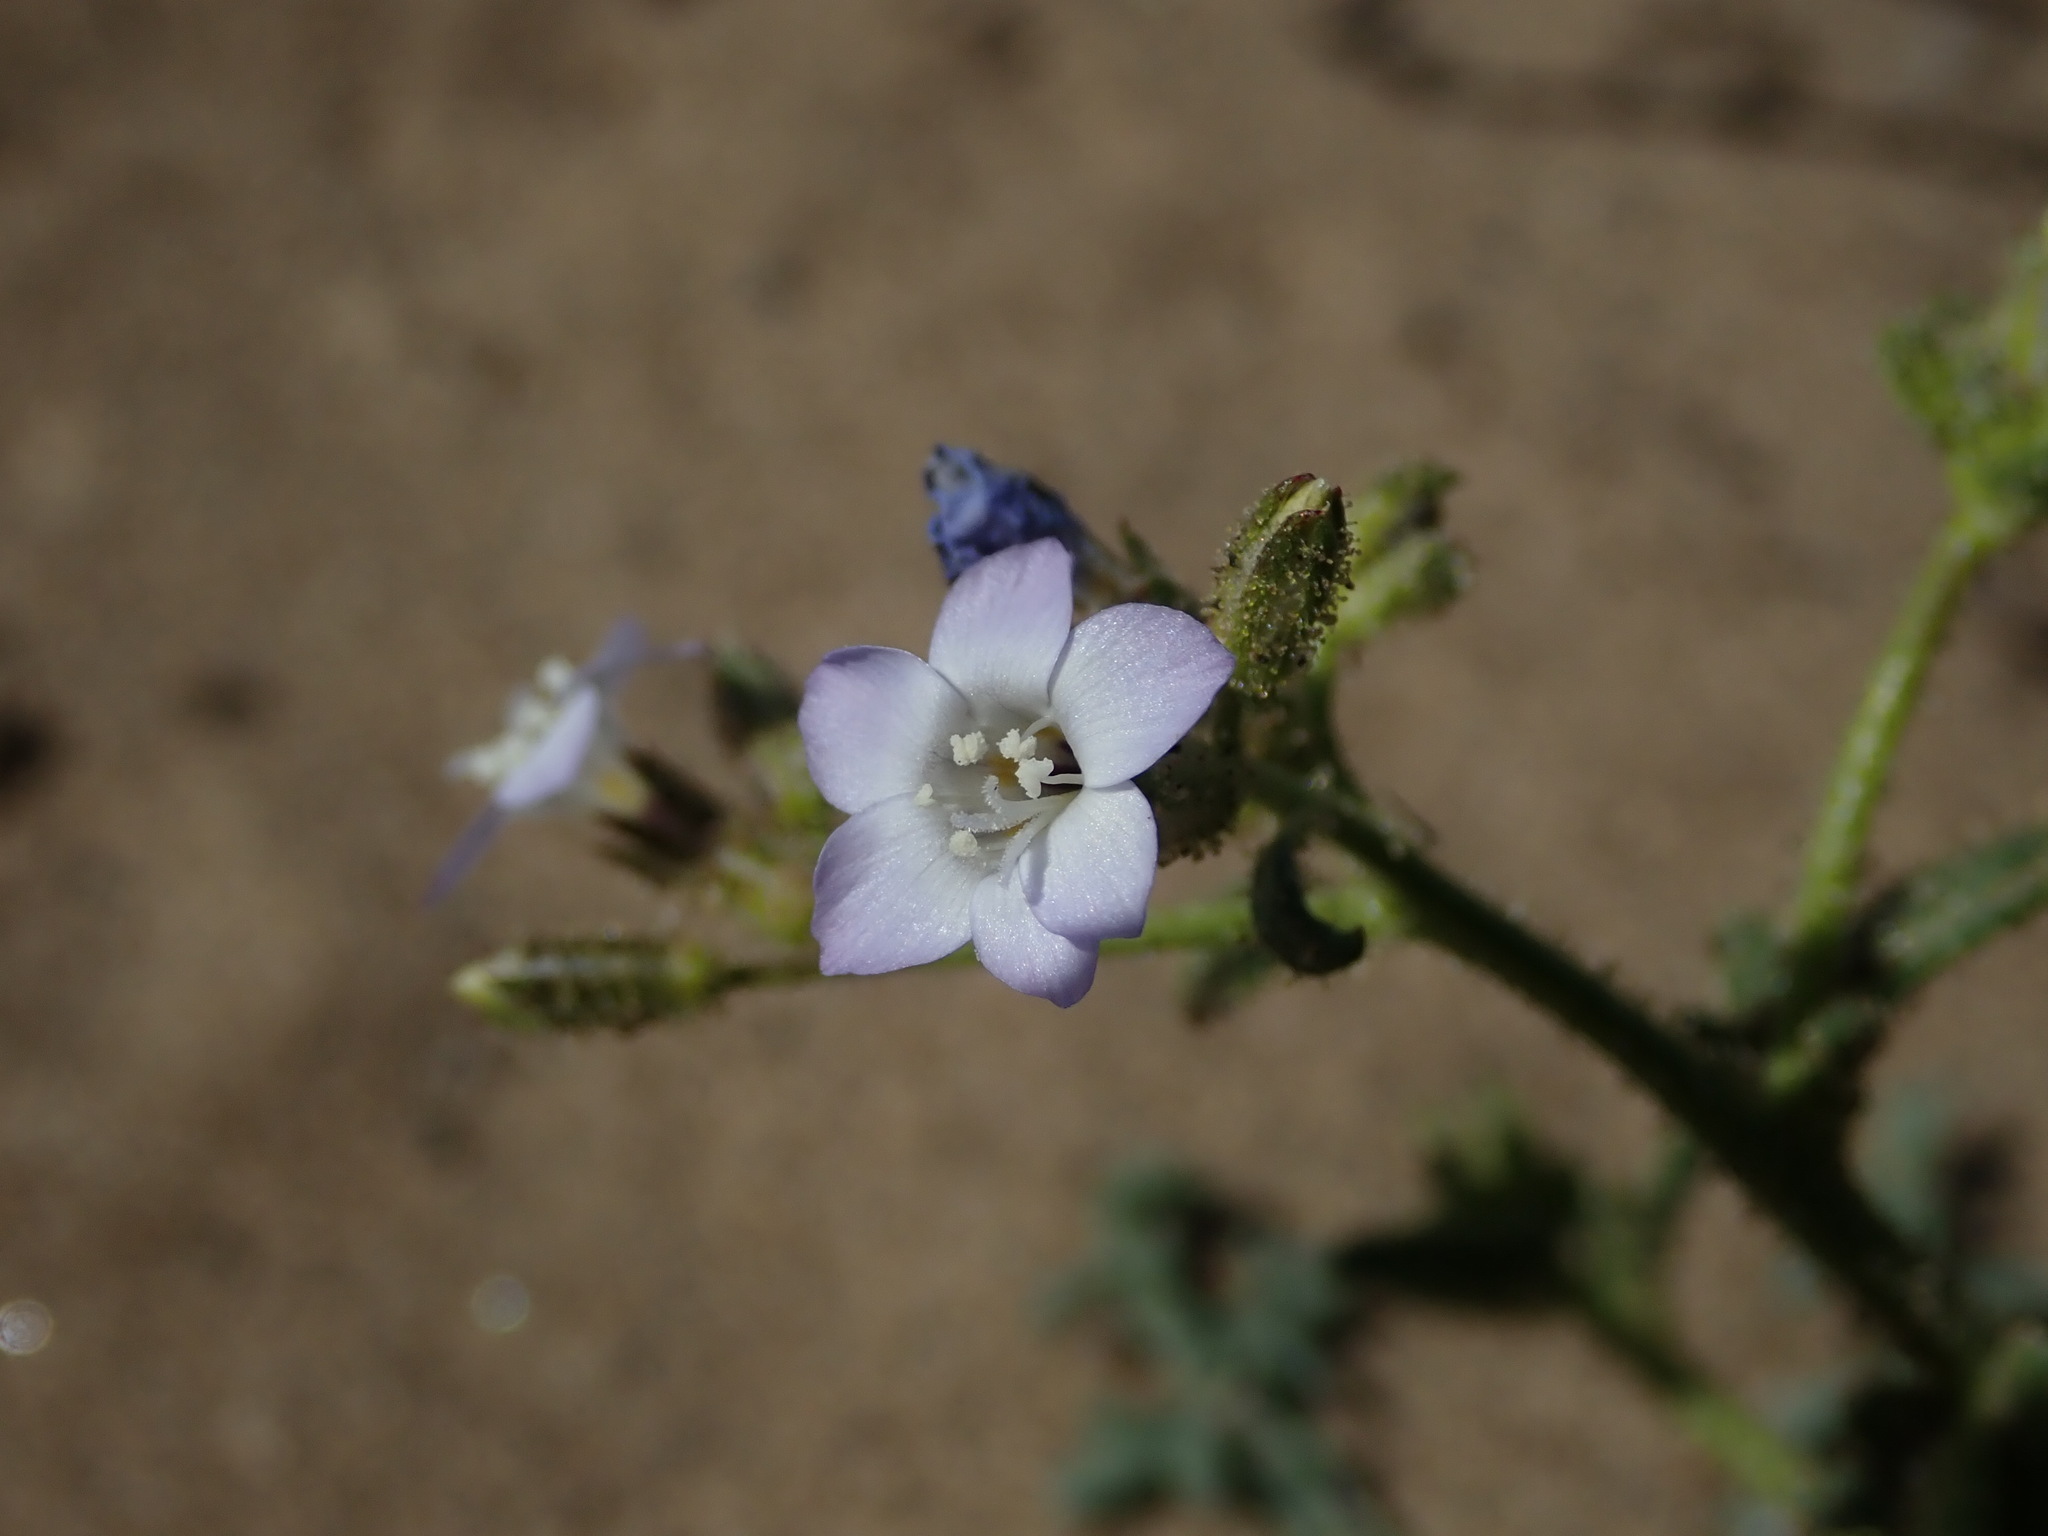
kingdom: Plantae
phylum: Tracheophyta
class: Magnoliopsida
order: Ericales
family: Polemoniaceae
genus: Gilia
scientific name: Gilia sinuata
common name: Rosy gilia
